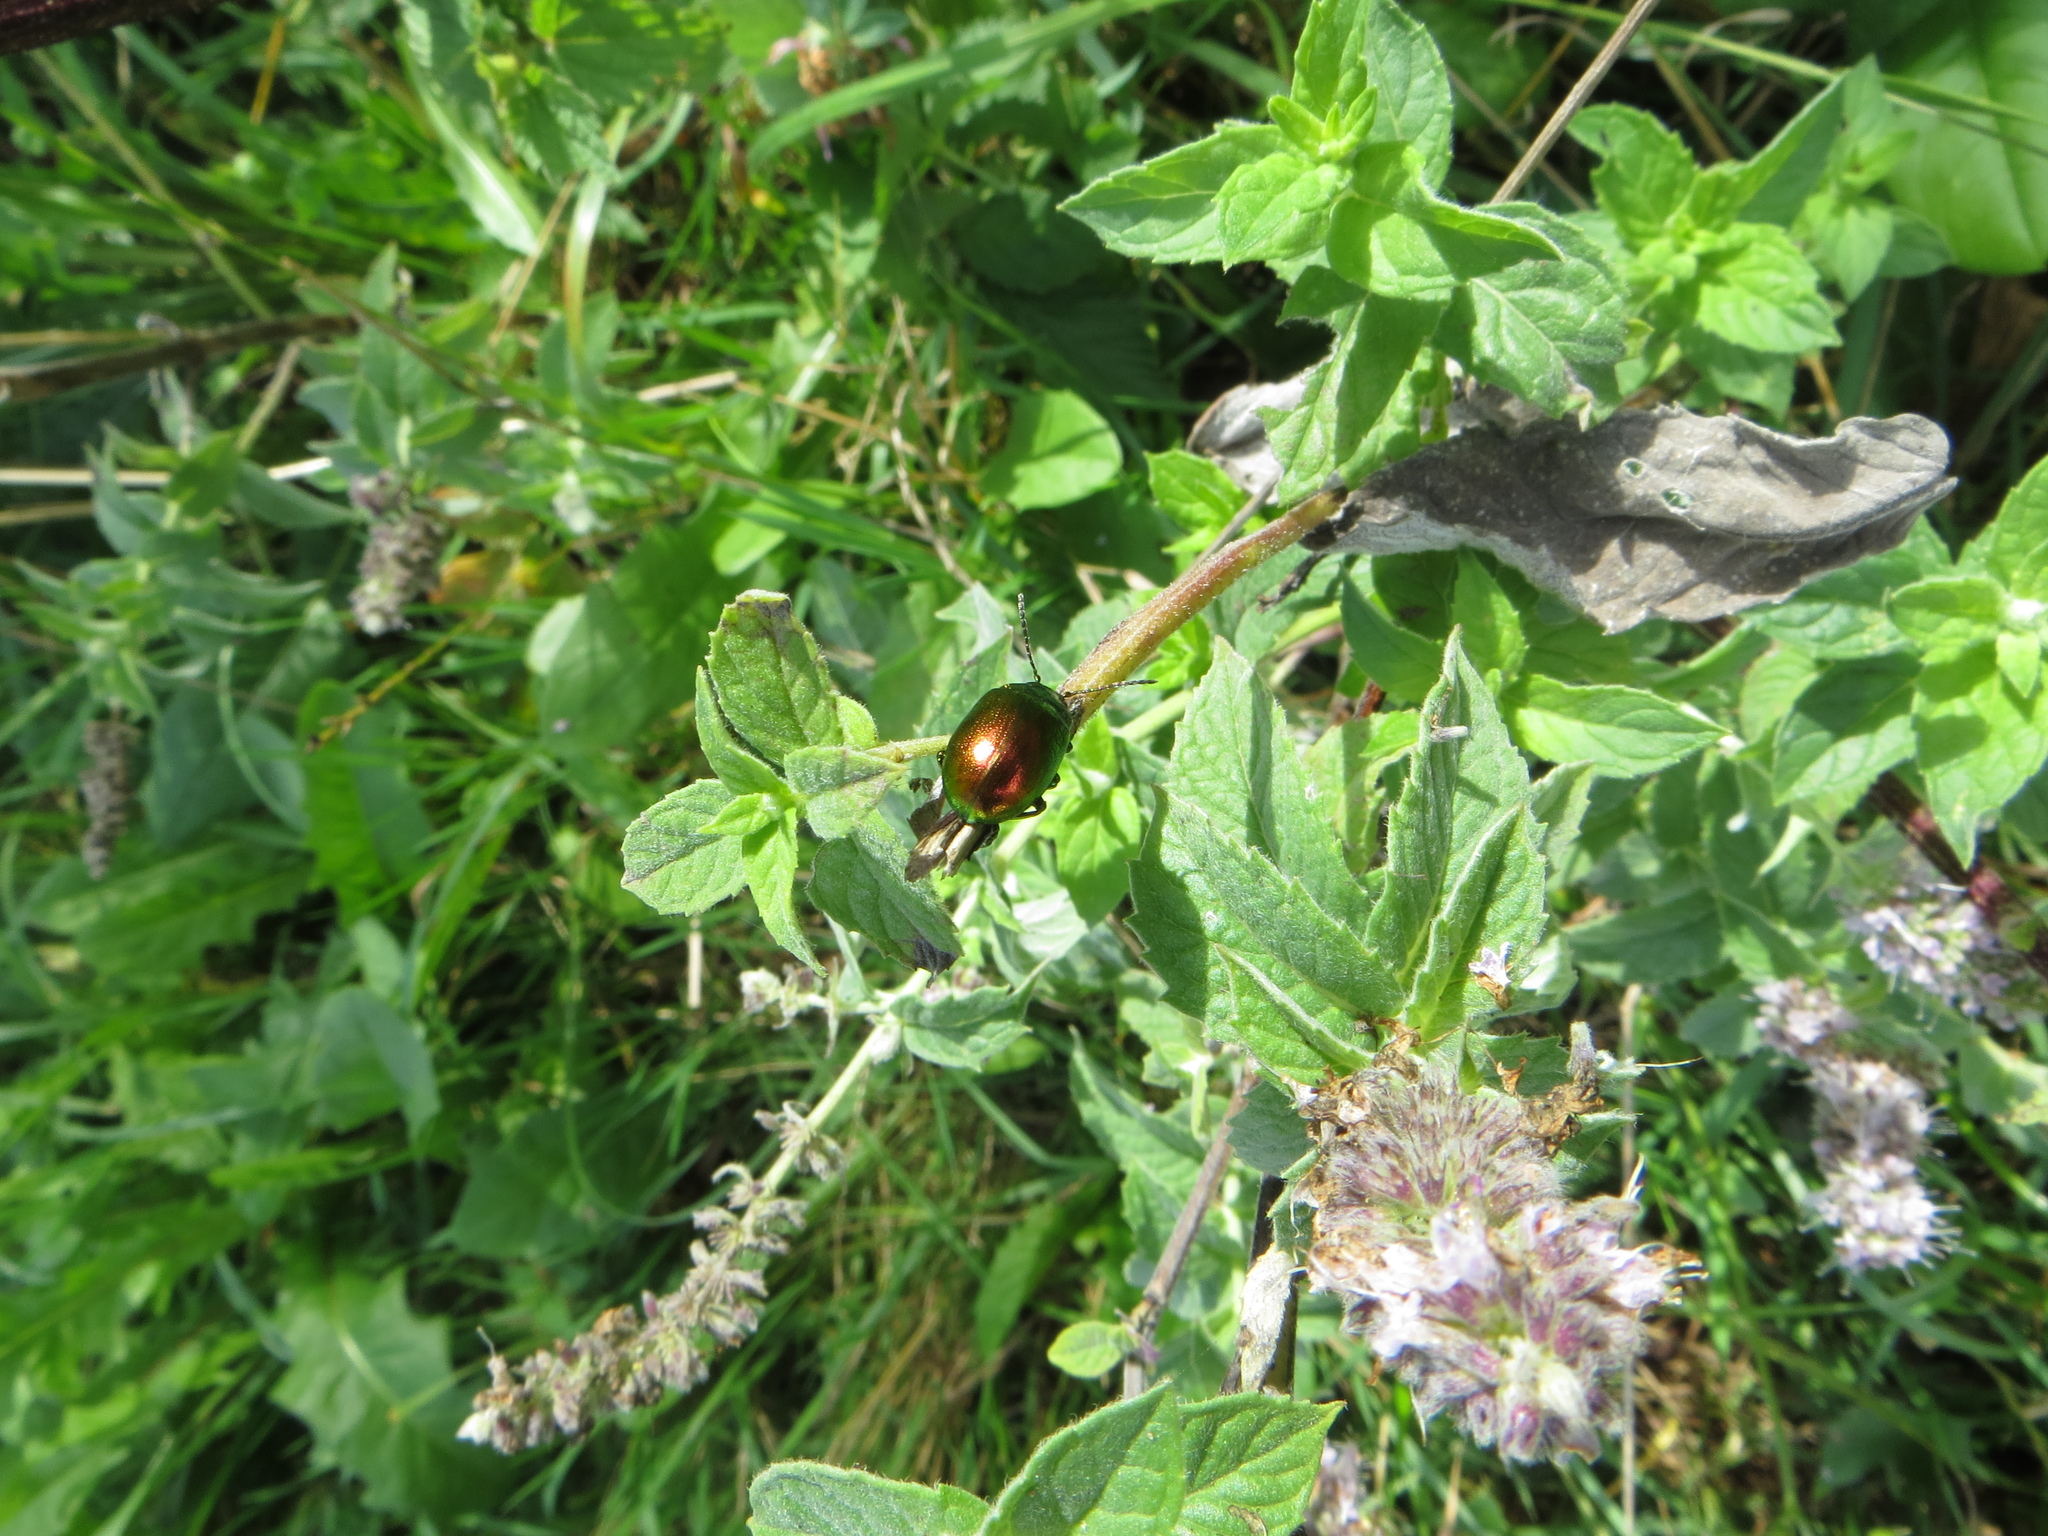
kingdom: Animalia
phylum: Arthropoda
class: Insecta
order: Coleoptera
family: Chrysomelidae
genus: Chrysolina
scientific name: Chrysolina herbacea
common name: Mint leaf beatle
